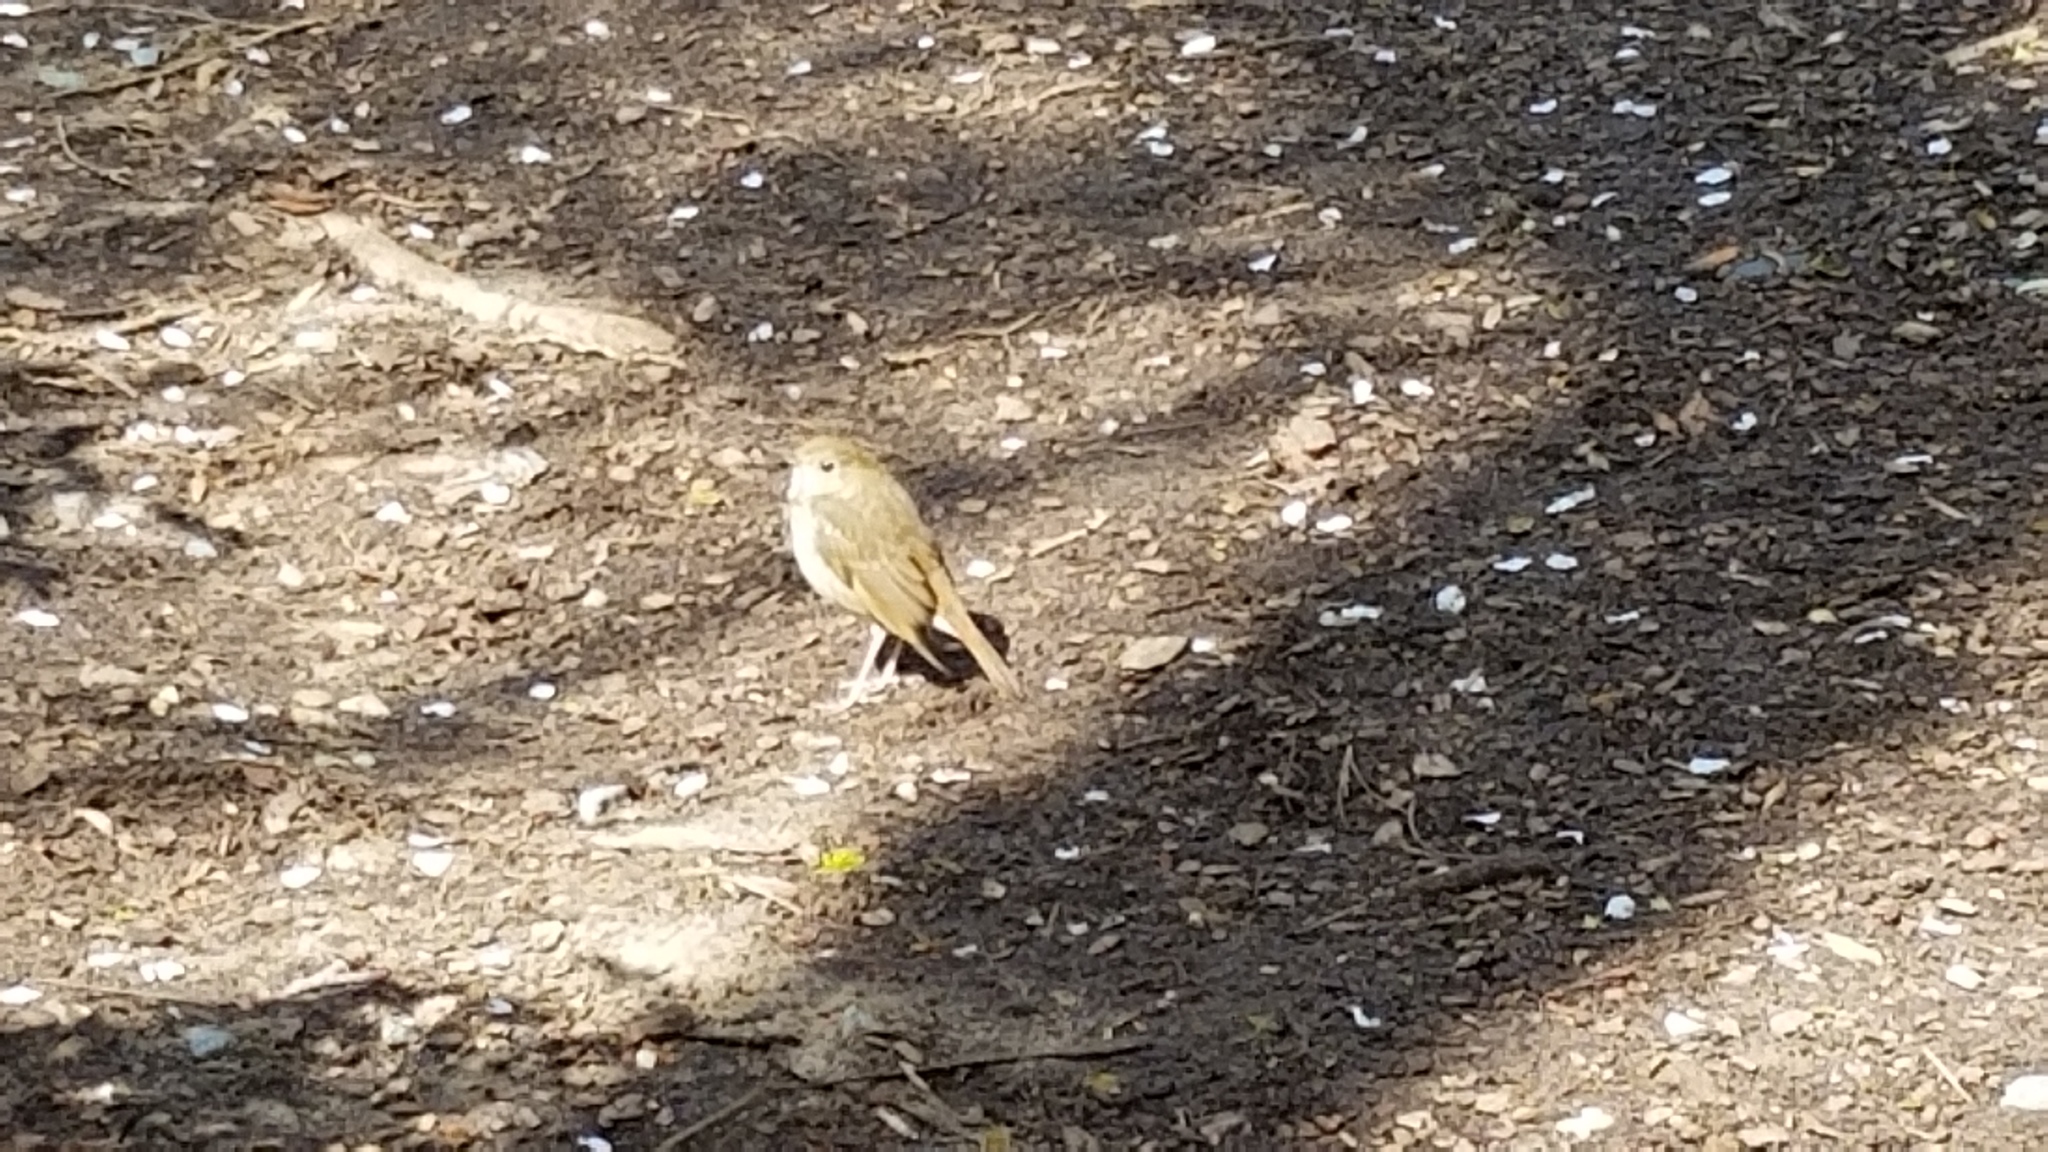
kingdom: Animalia
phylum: Chordata
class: Aves
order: Passeriformes
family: Turdidae
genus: Catharus
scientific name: Catharus guttatus
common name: Hermit thrush
